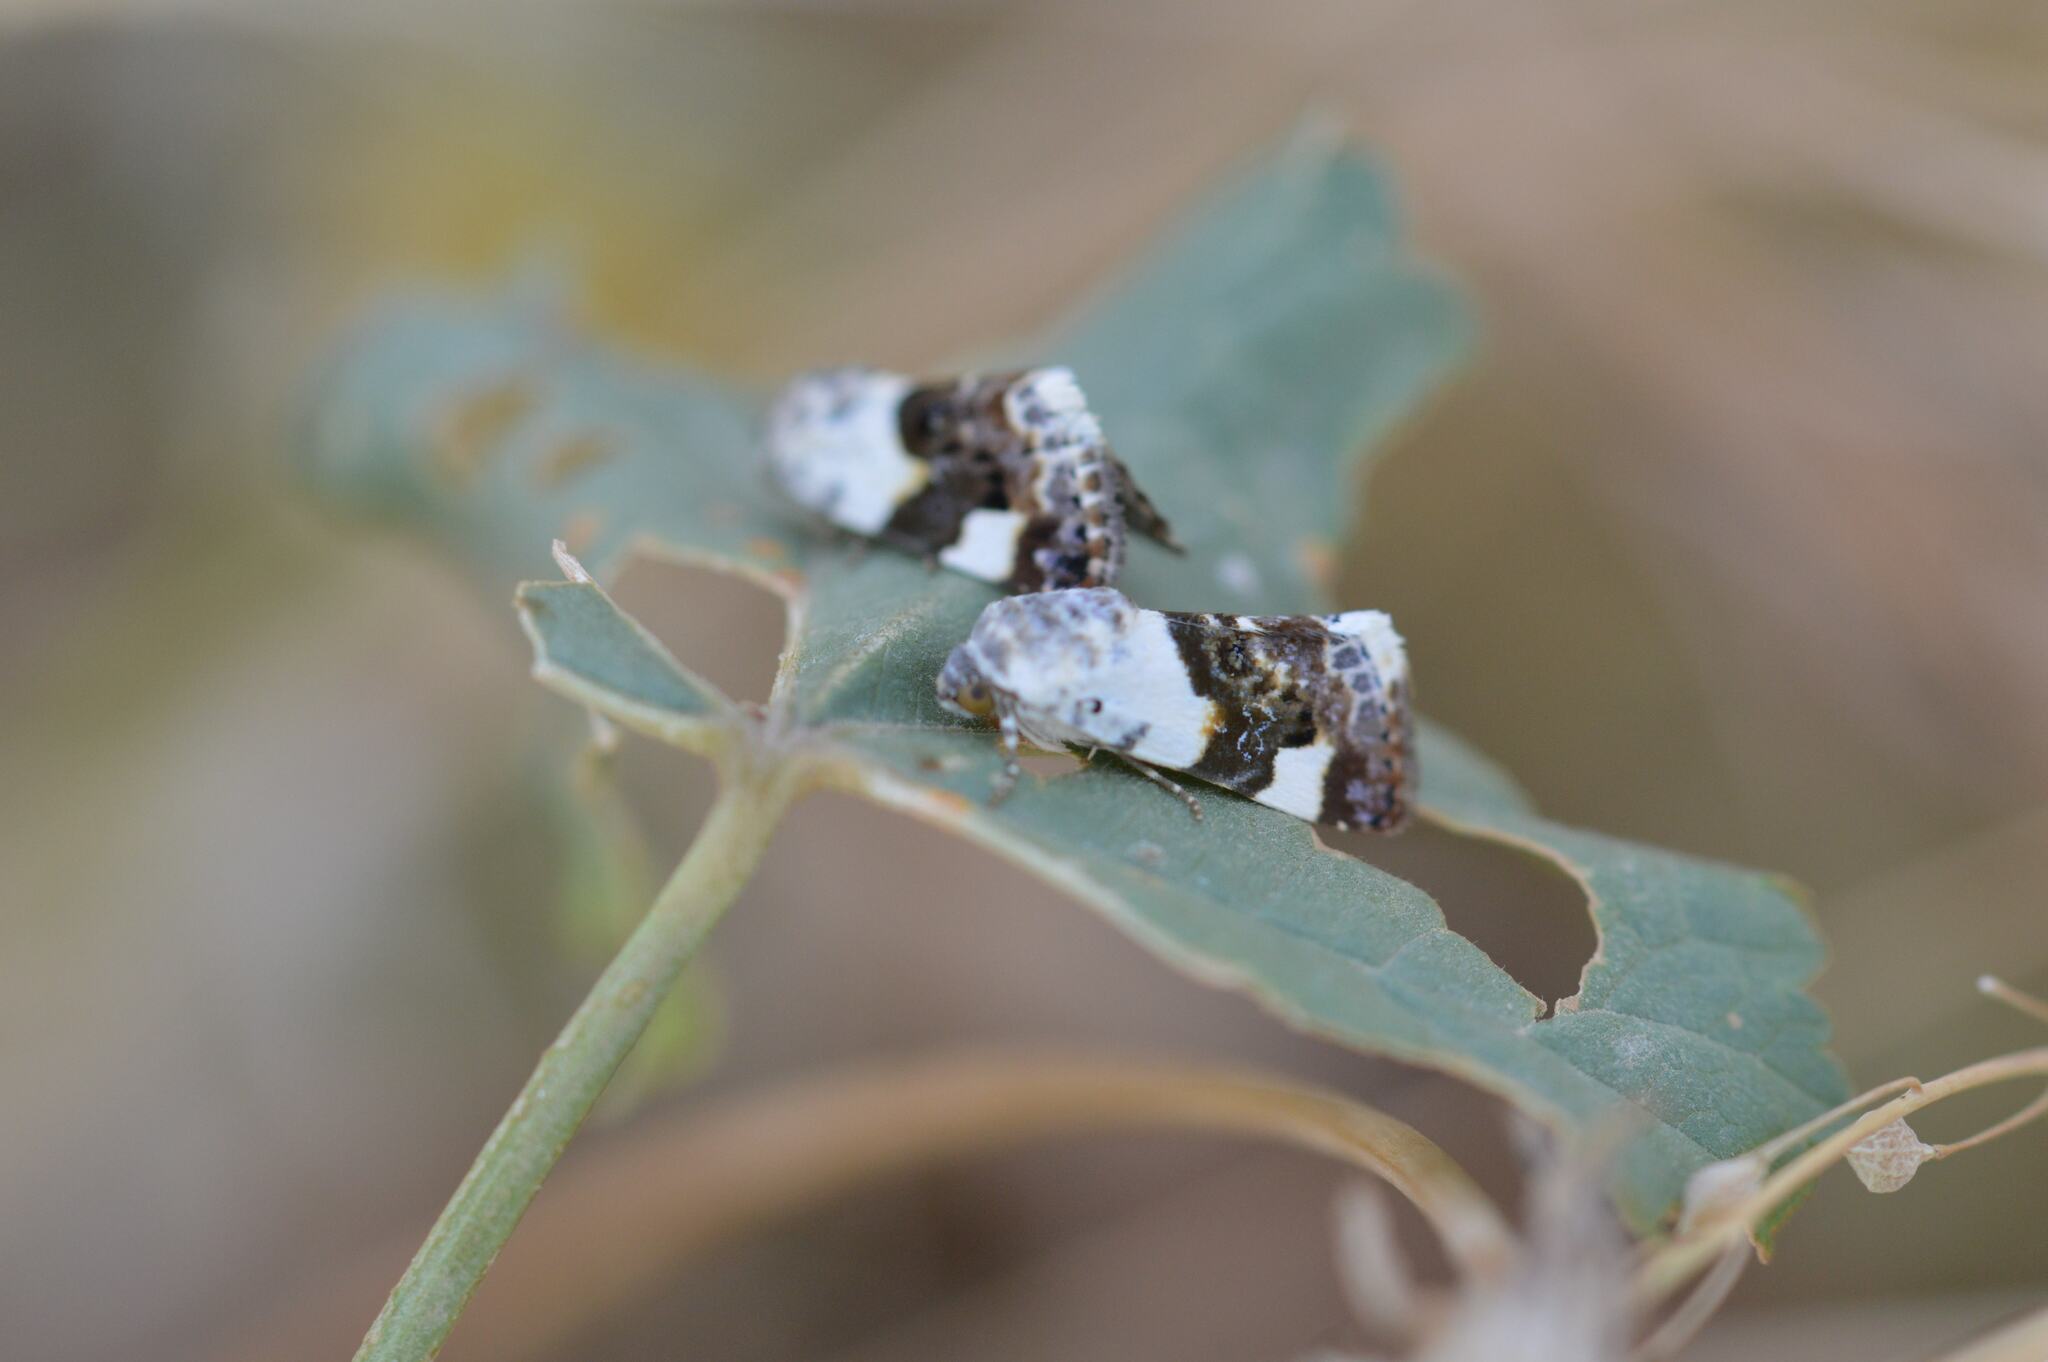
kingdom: Animalia
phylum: Arthropoda
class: Insecta
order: Lepidoptera
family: Noctuidae
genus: Acontia
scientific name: Acontia lucida
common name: Pale shoulder
